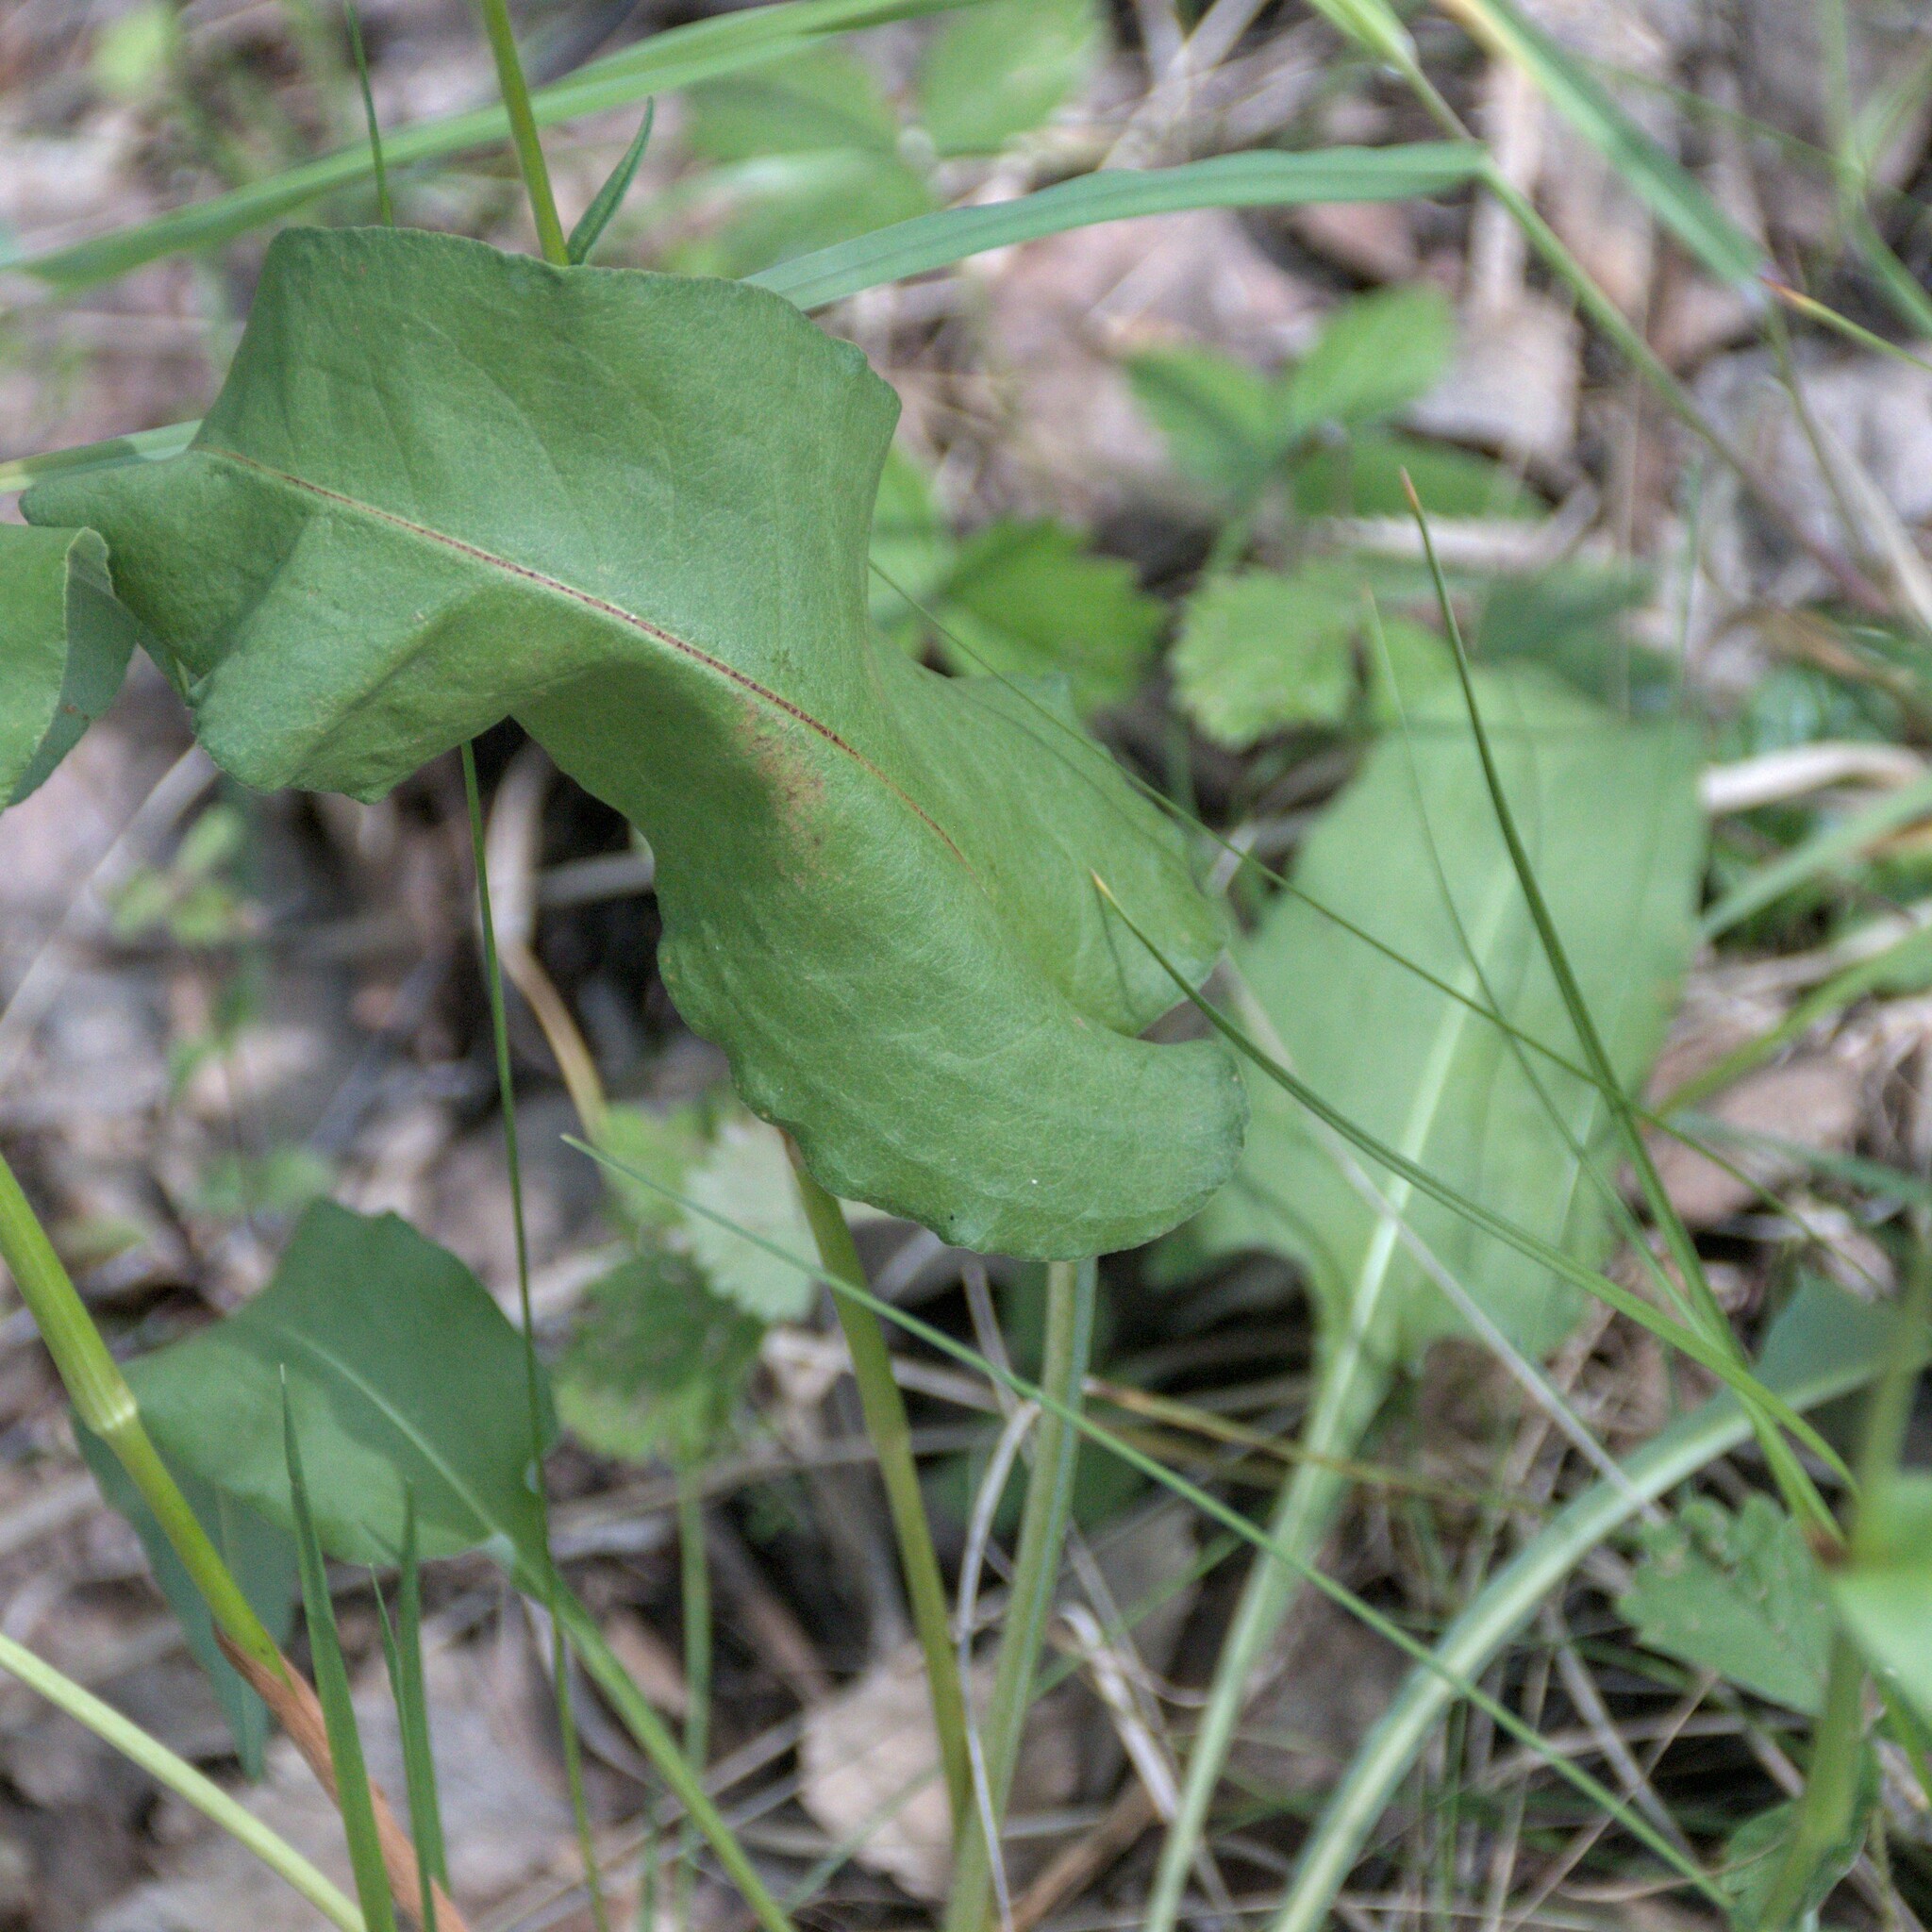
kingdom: Plantae
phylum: Tracheophyta
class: Magnoliopsida
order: Caryophyllales
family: Polygonaceae
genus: Bistorta
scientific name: Bistorta officinalis
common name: Common bistort
